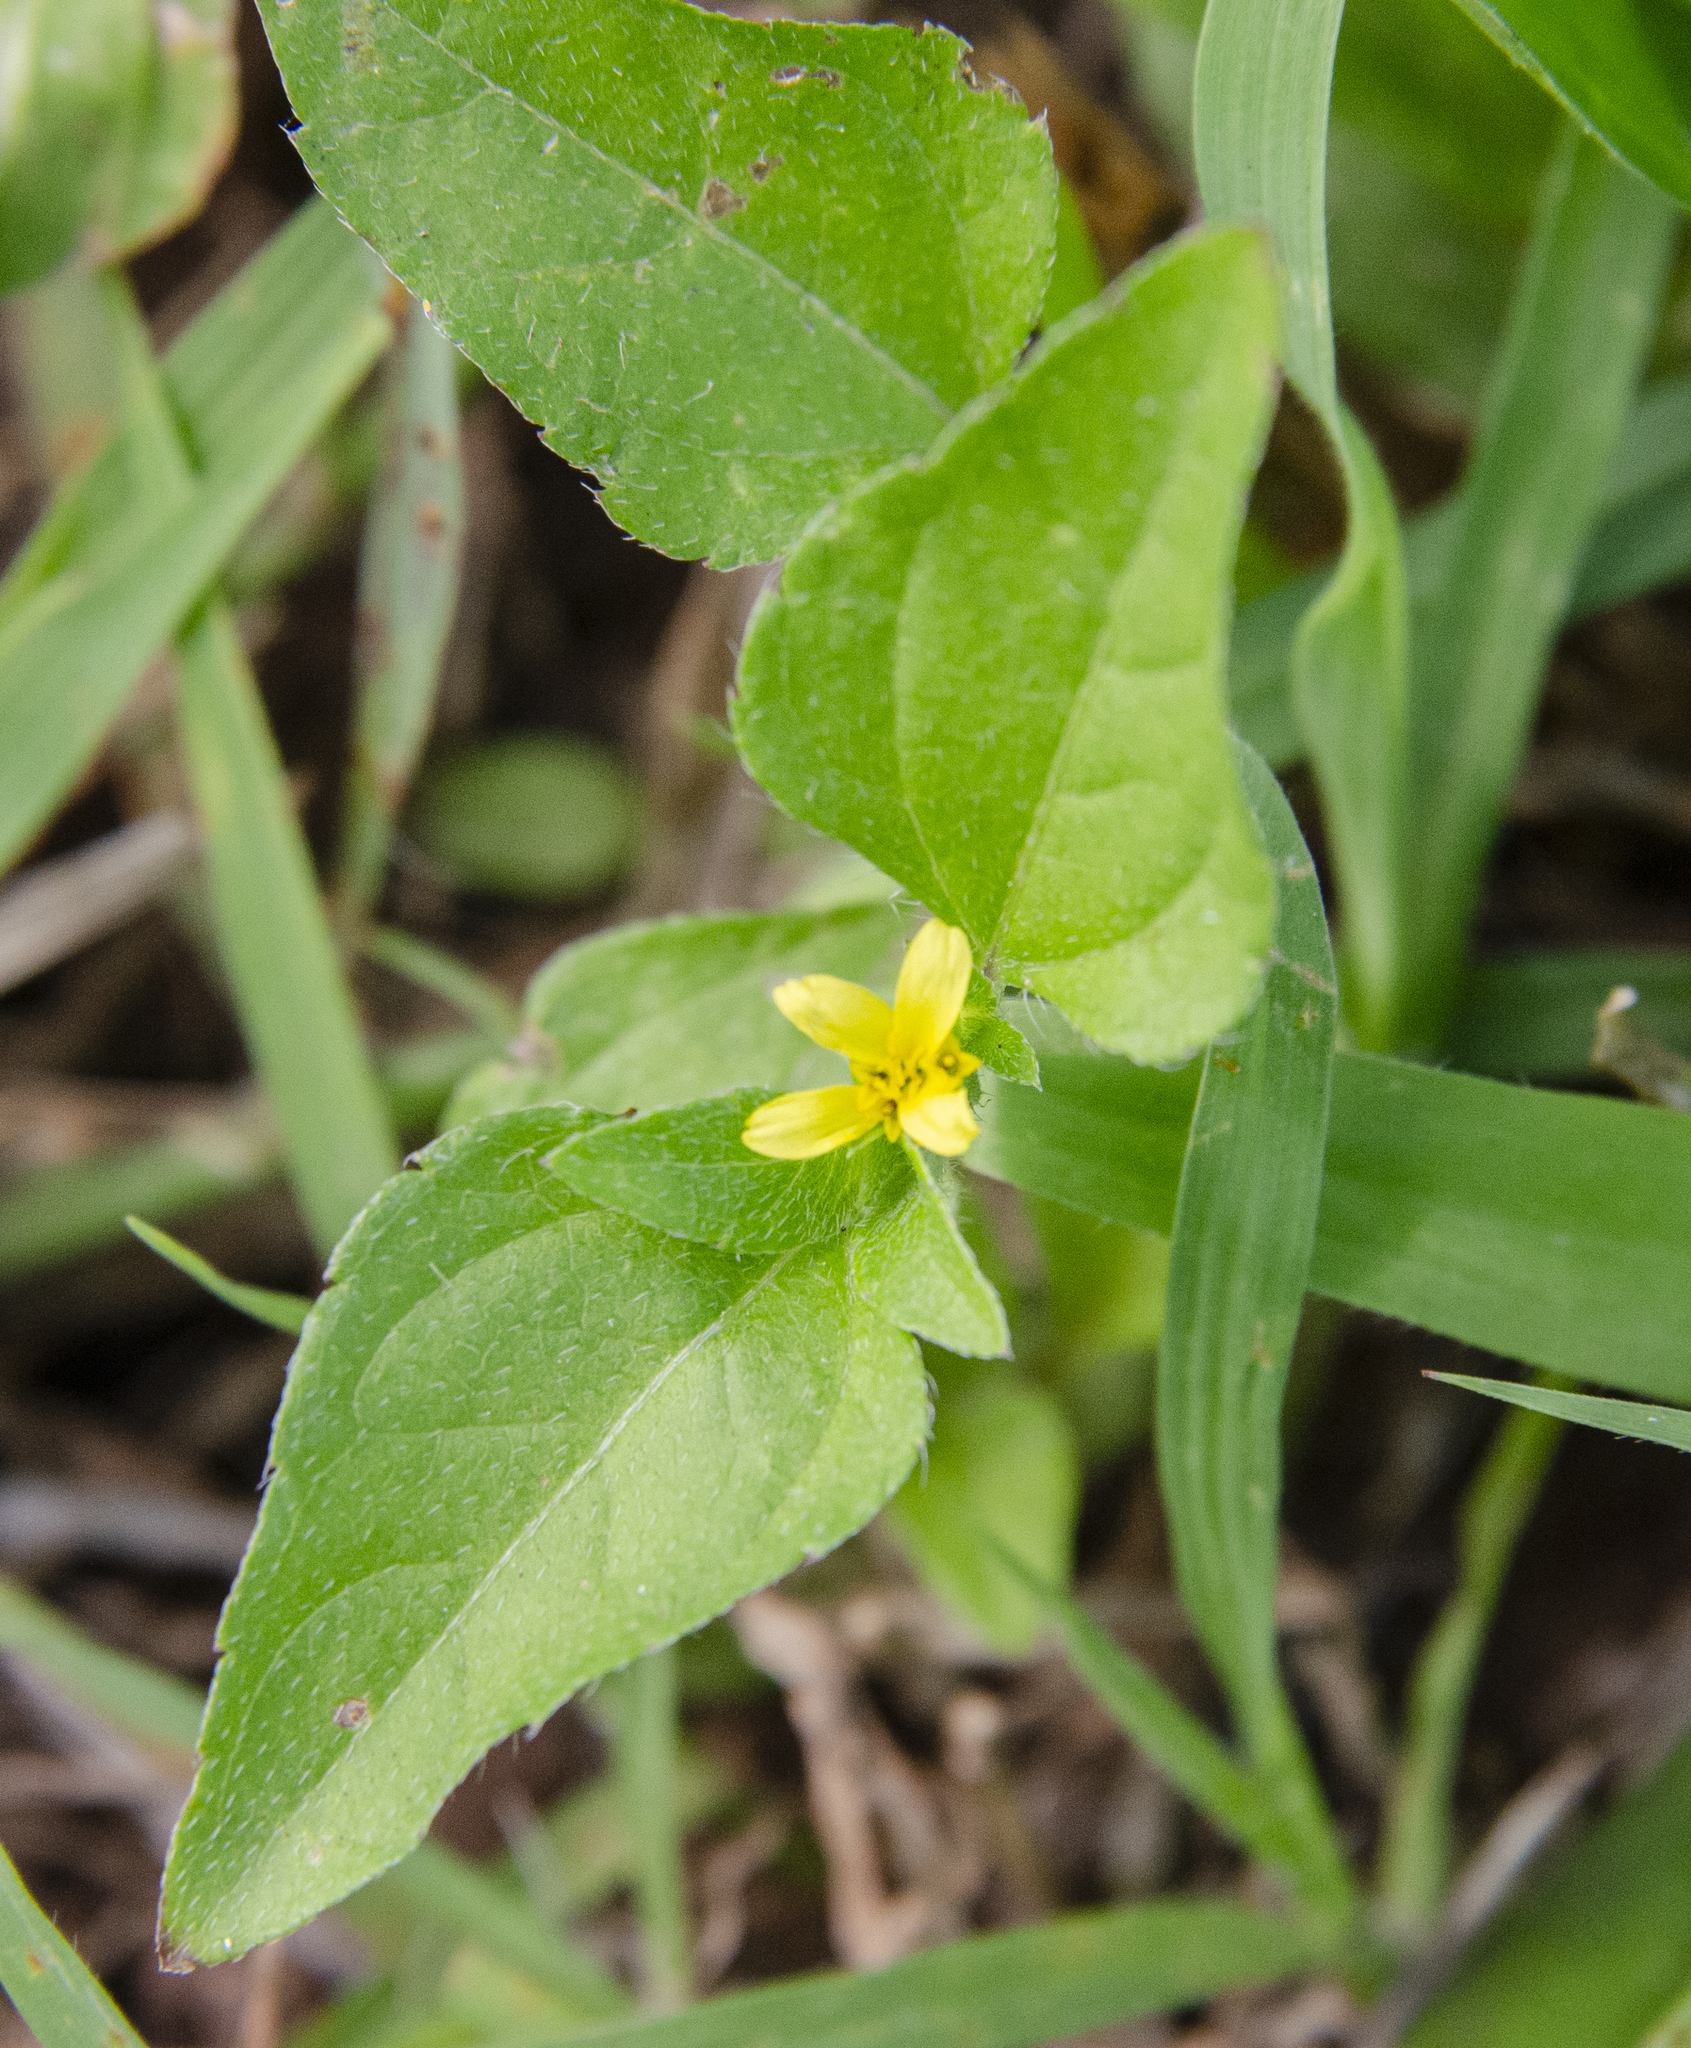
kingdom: Plantae
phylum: Tracheophyta
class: Magnoliopsida
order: Asterales
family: Asteraceae
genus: Calyptocarpus
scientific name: Calyptocarpus vialis
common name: Straggler daisy
